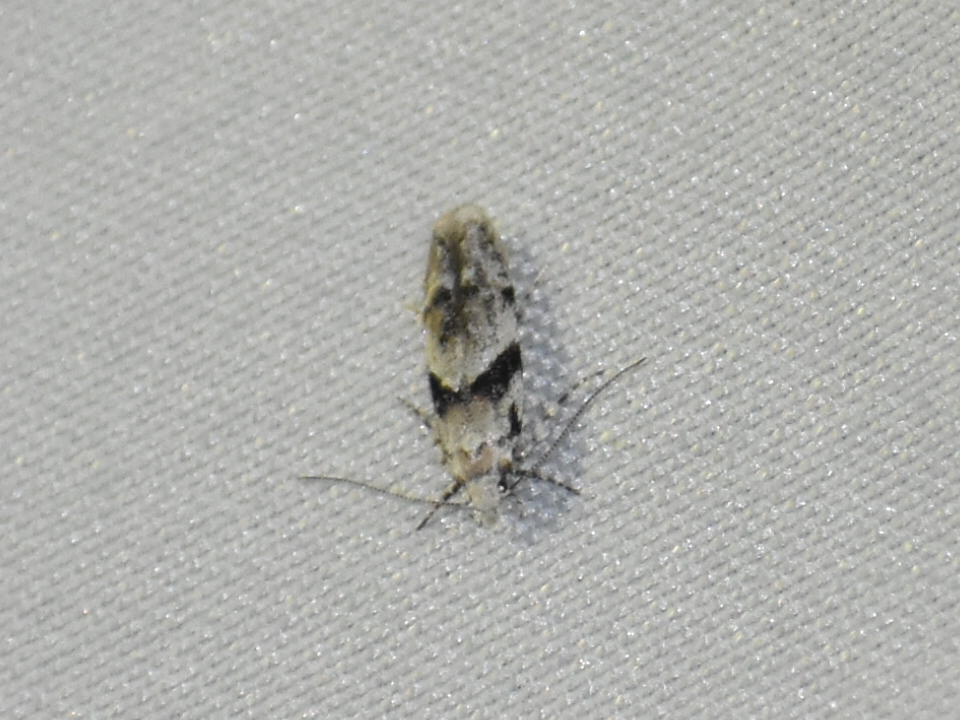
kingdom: Animalia
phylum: Arthropoda
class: Insecta
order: Lepidoptera
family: Gelechiidae
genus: Arogalea
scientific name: Arogalea cristifasciella
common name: White stripe-backed moth
